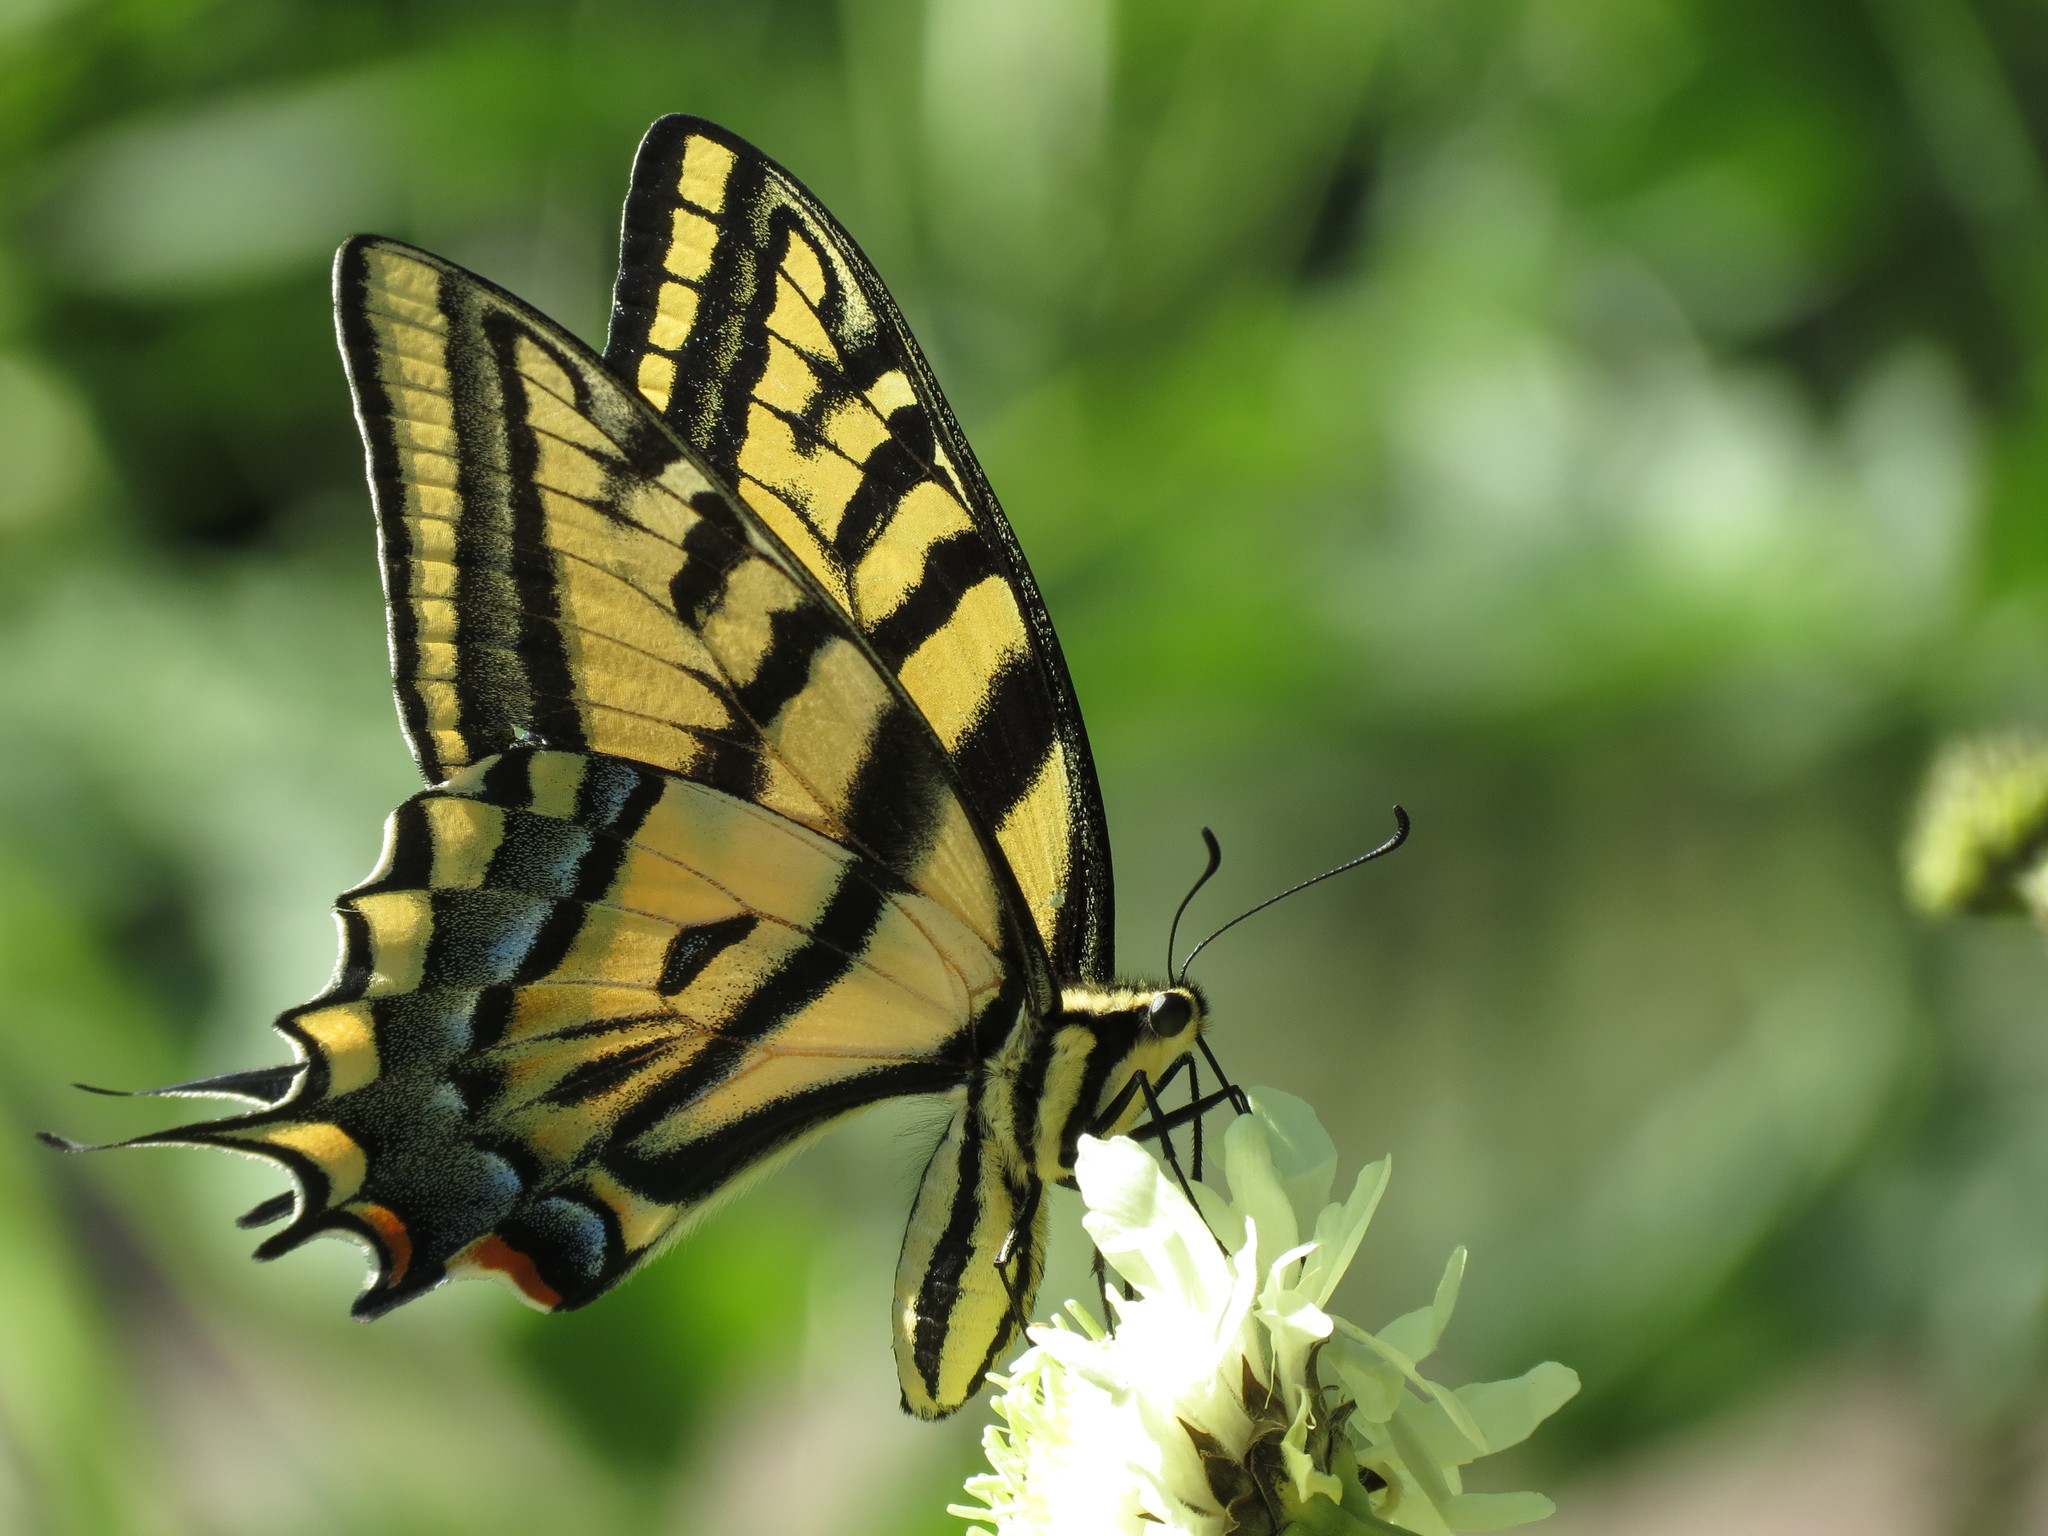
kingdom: Animalia
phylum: Arthropoda
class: Insecta
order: Lepidoptera
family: Papilionidae
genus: Papilio
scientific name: Papilio multicaudata
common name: Two-tailed tiger swallowtail
